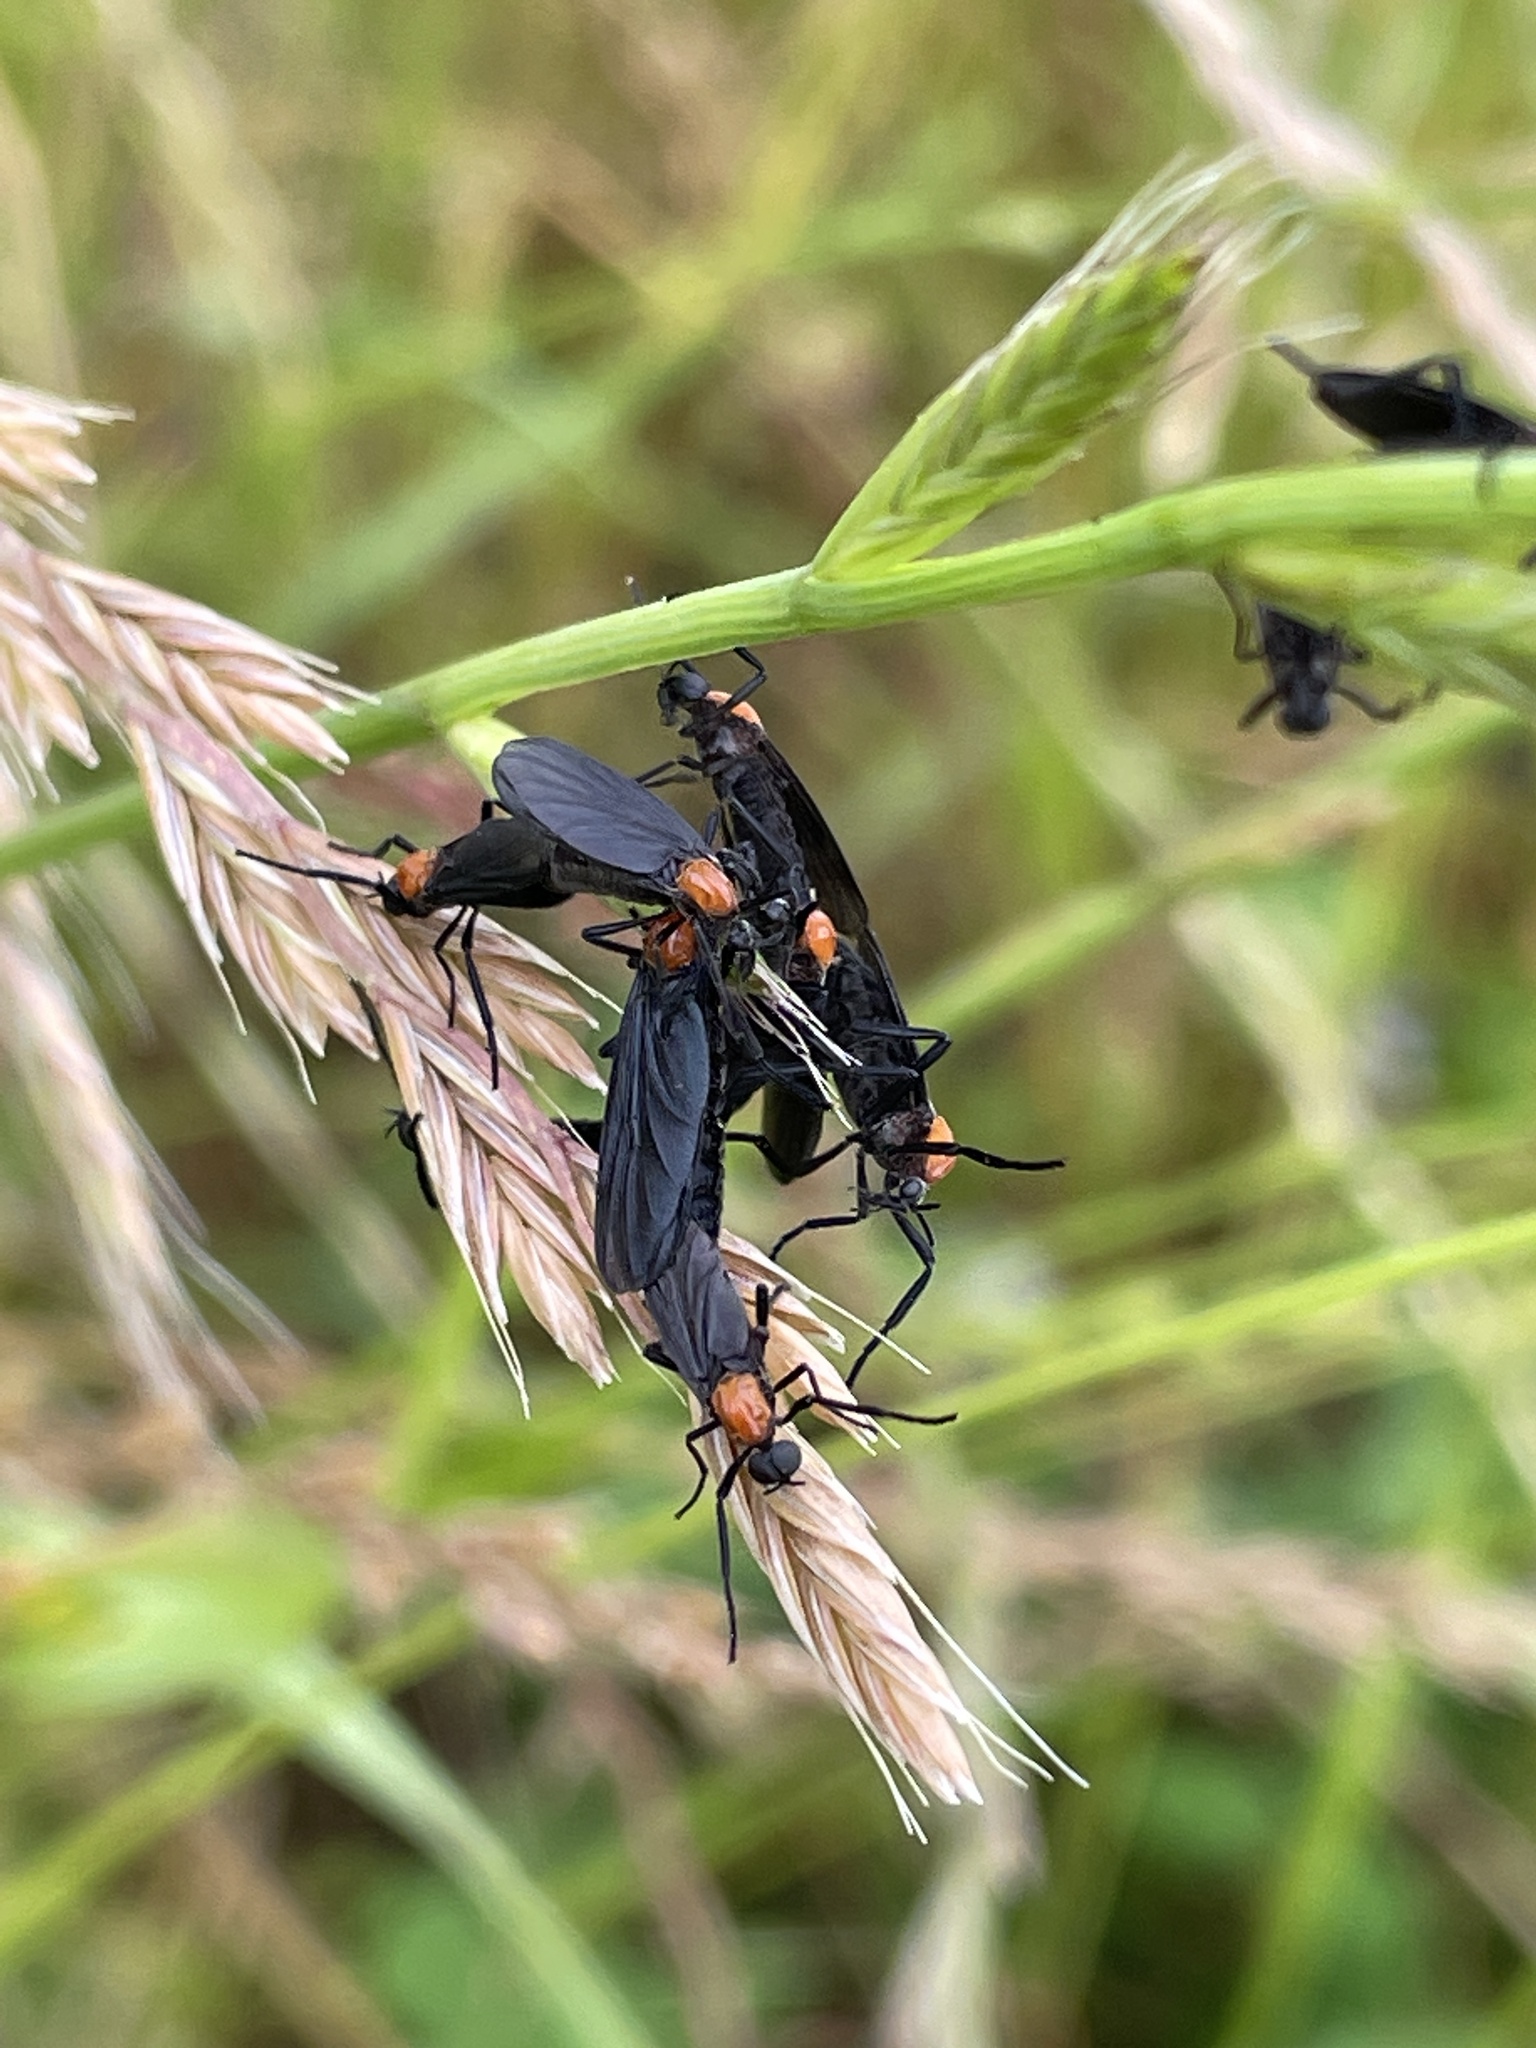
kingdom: Animalia
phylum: Arthropoda
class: Insecta
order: Diptera
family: Bibionidae
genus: Plecia
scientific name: Plecia nearctica
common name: March fly
